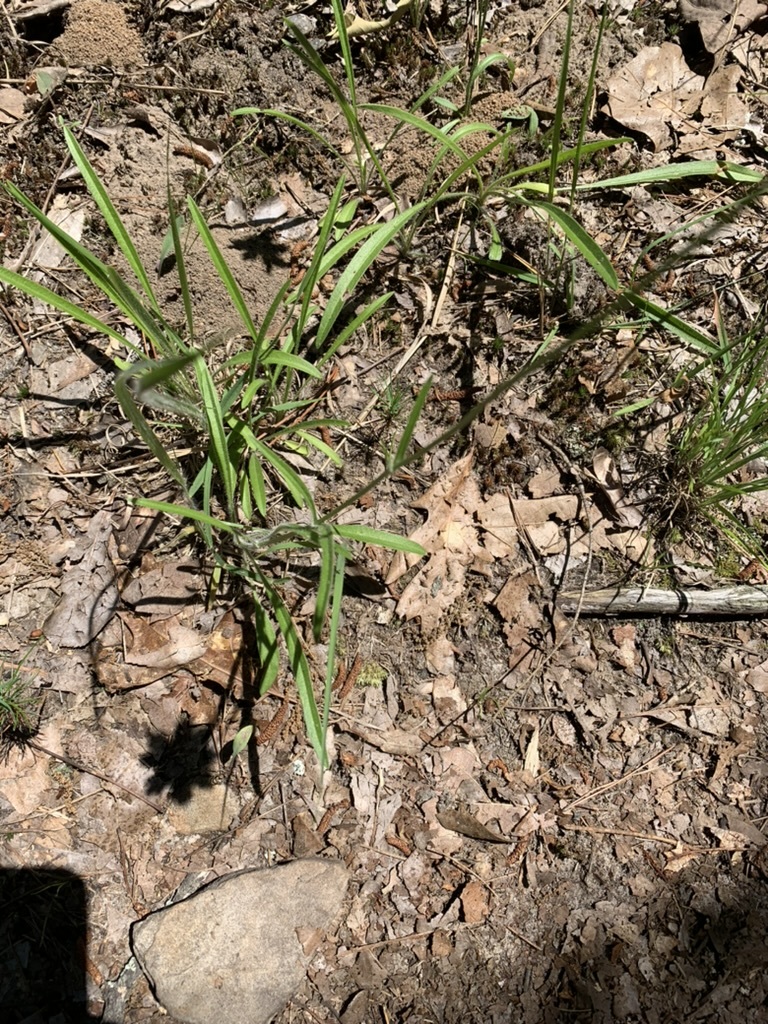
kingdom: Plantae
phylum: Tracheophyta
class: Magnoliopsida
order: Asterales
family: Asteraceae
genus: Coreopsis
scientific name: Coreopsis lanceolata
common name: Garden coreopsis
